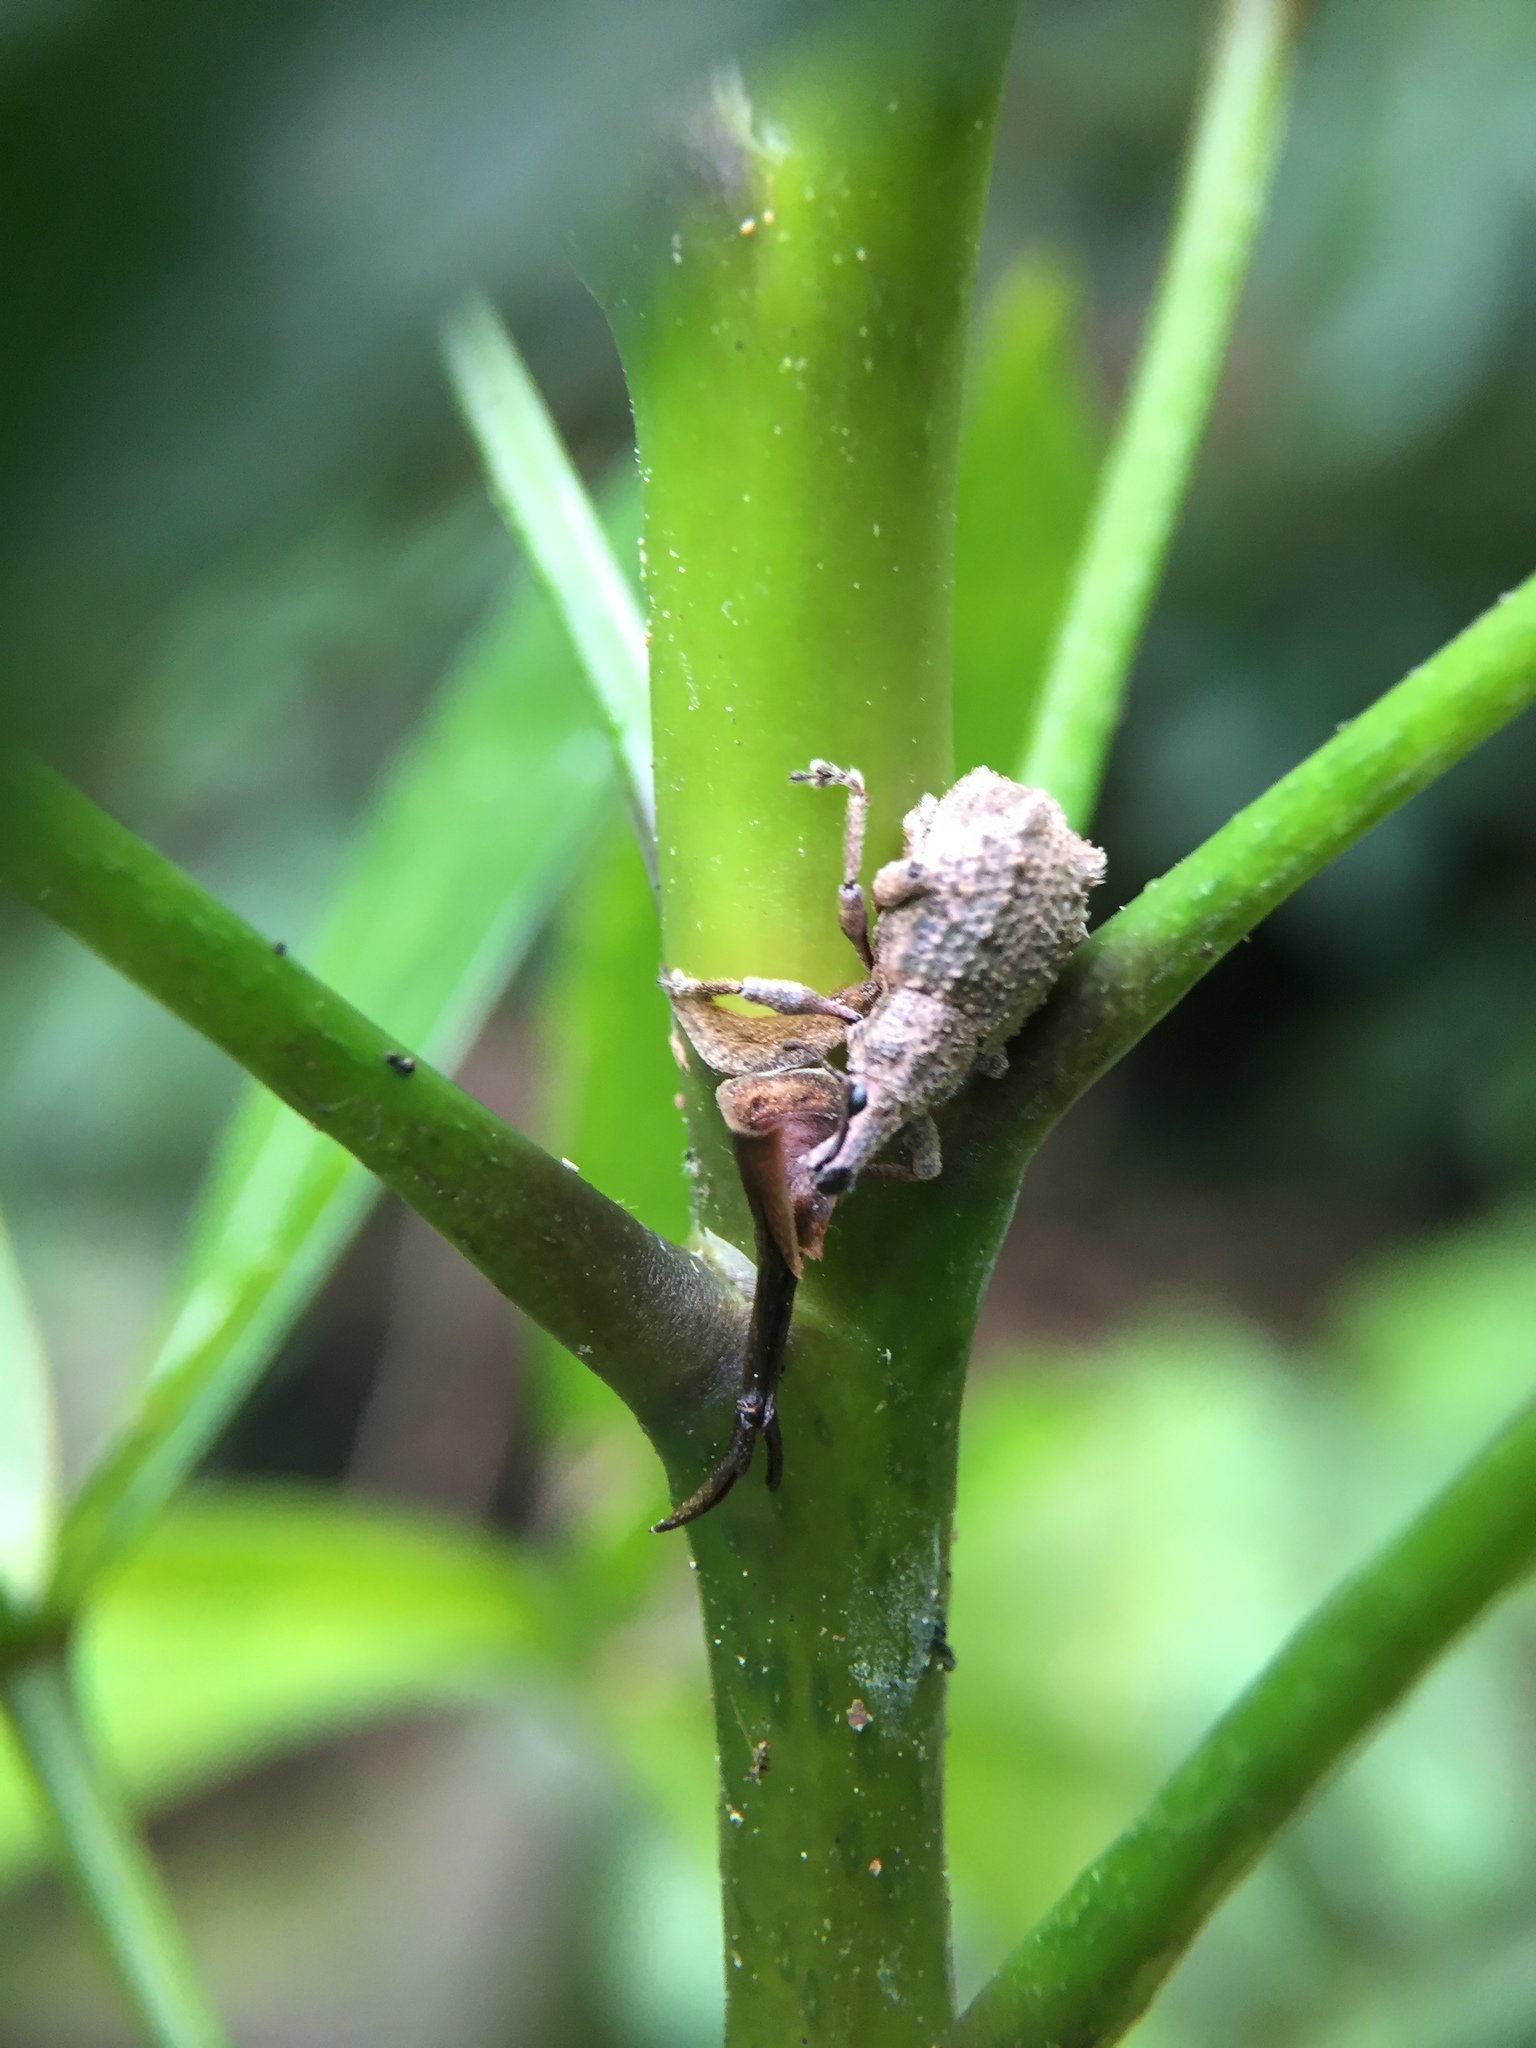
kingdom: Animalia
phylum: Arthropoda
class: Insecta
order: Coleoptera
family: Curculionidae
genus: Catoptes
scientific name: Catoptes binodis
